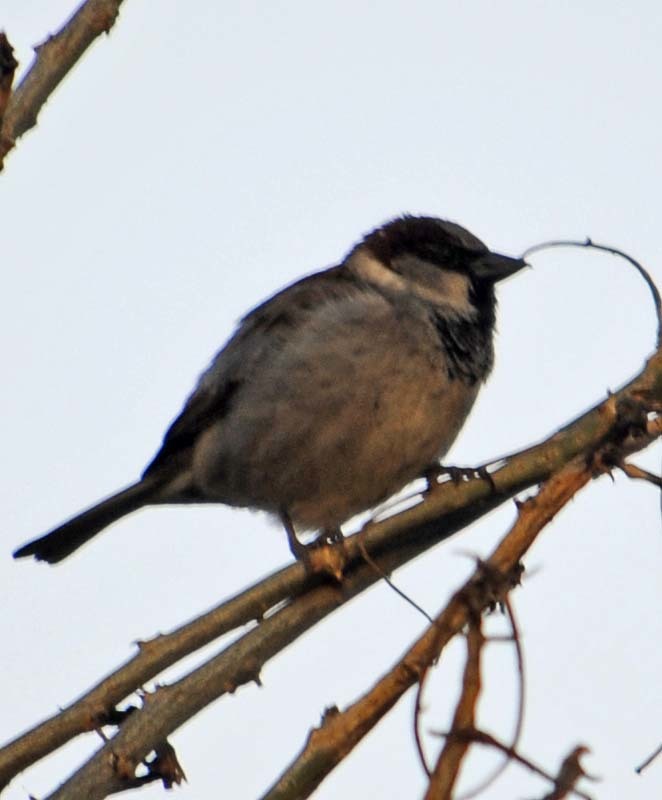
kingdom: Animalia
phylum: Chordata
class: Aves
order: Passeriformes
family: Passeridae
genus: Passer
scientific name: Passer domesticus
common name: House sparrow
